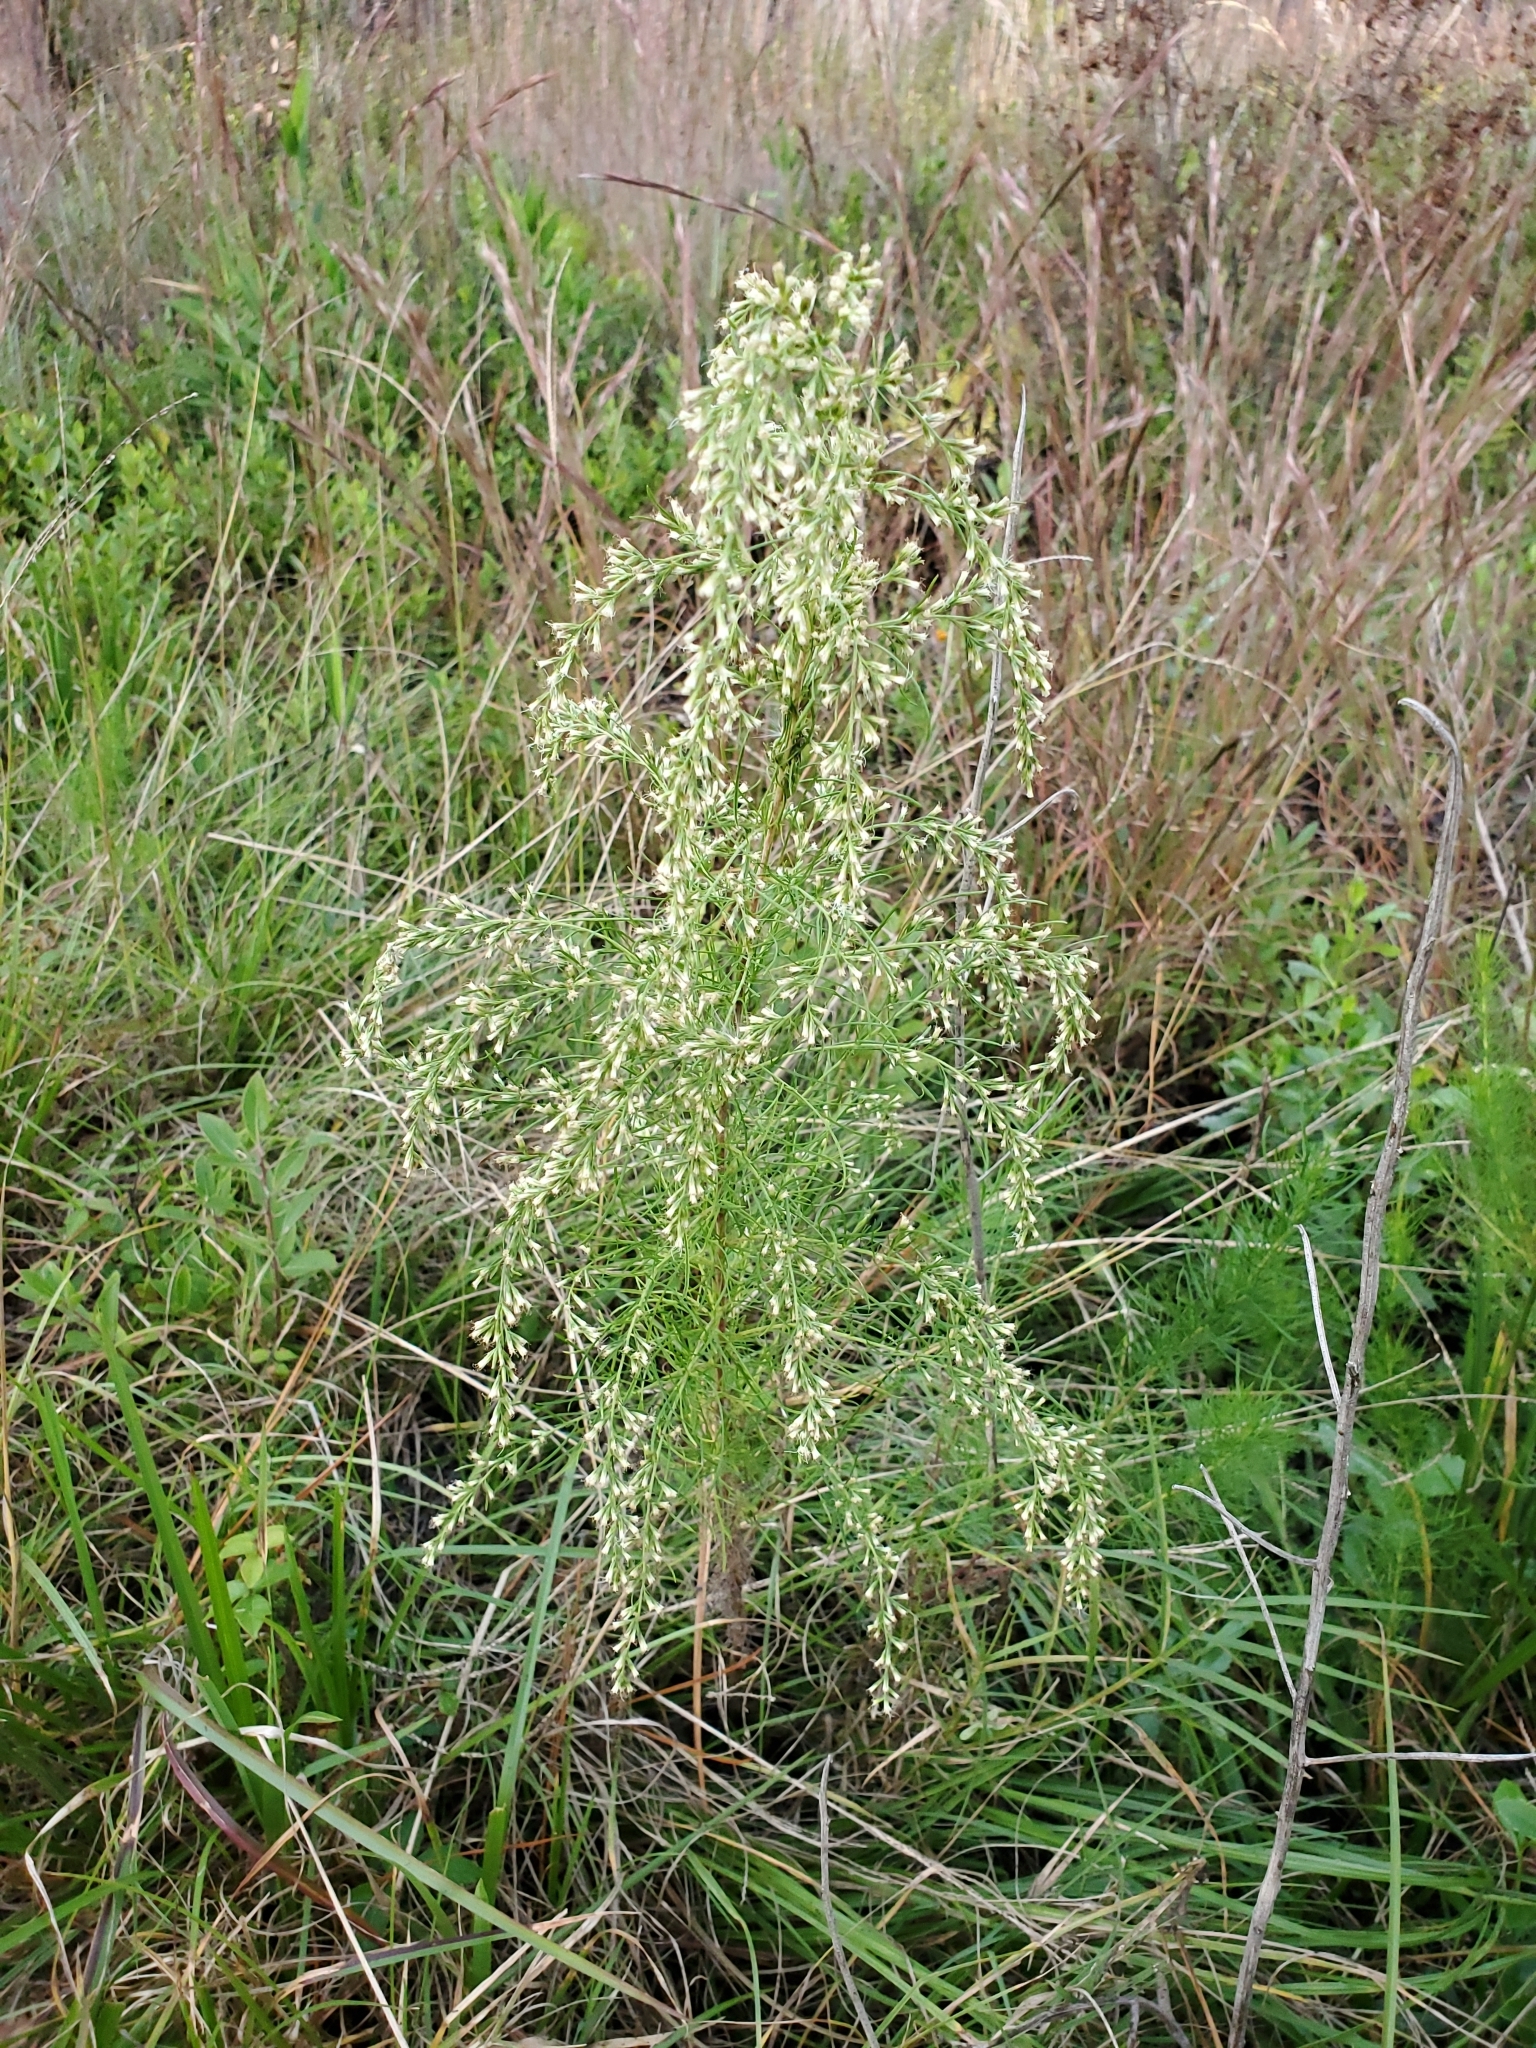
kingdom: Plantae
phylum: Tracheophyta
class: Magnoliopsida
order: Asterales
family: Asteraceae
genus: Eupatorium
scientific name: Eupatorium compositifolium
